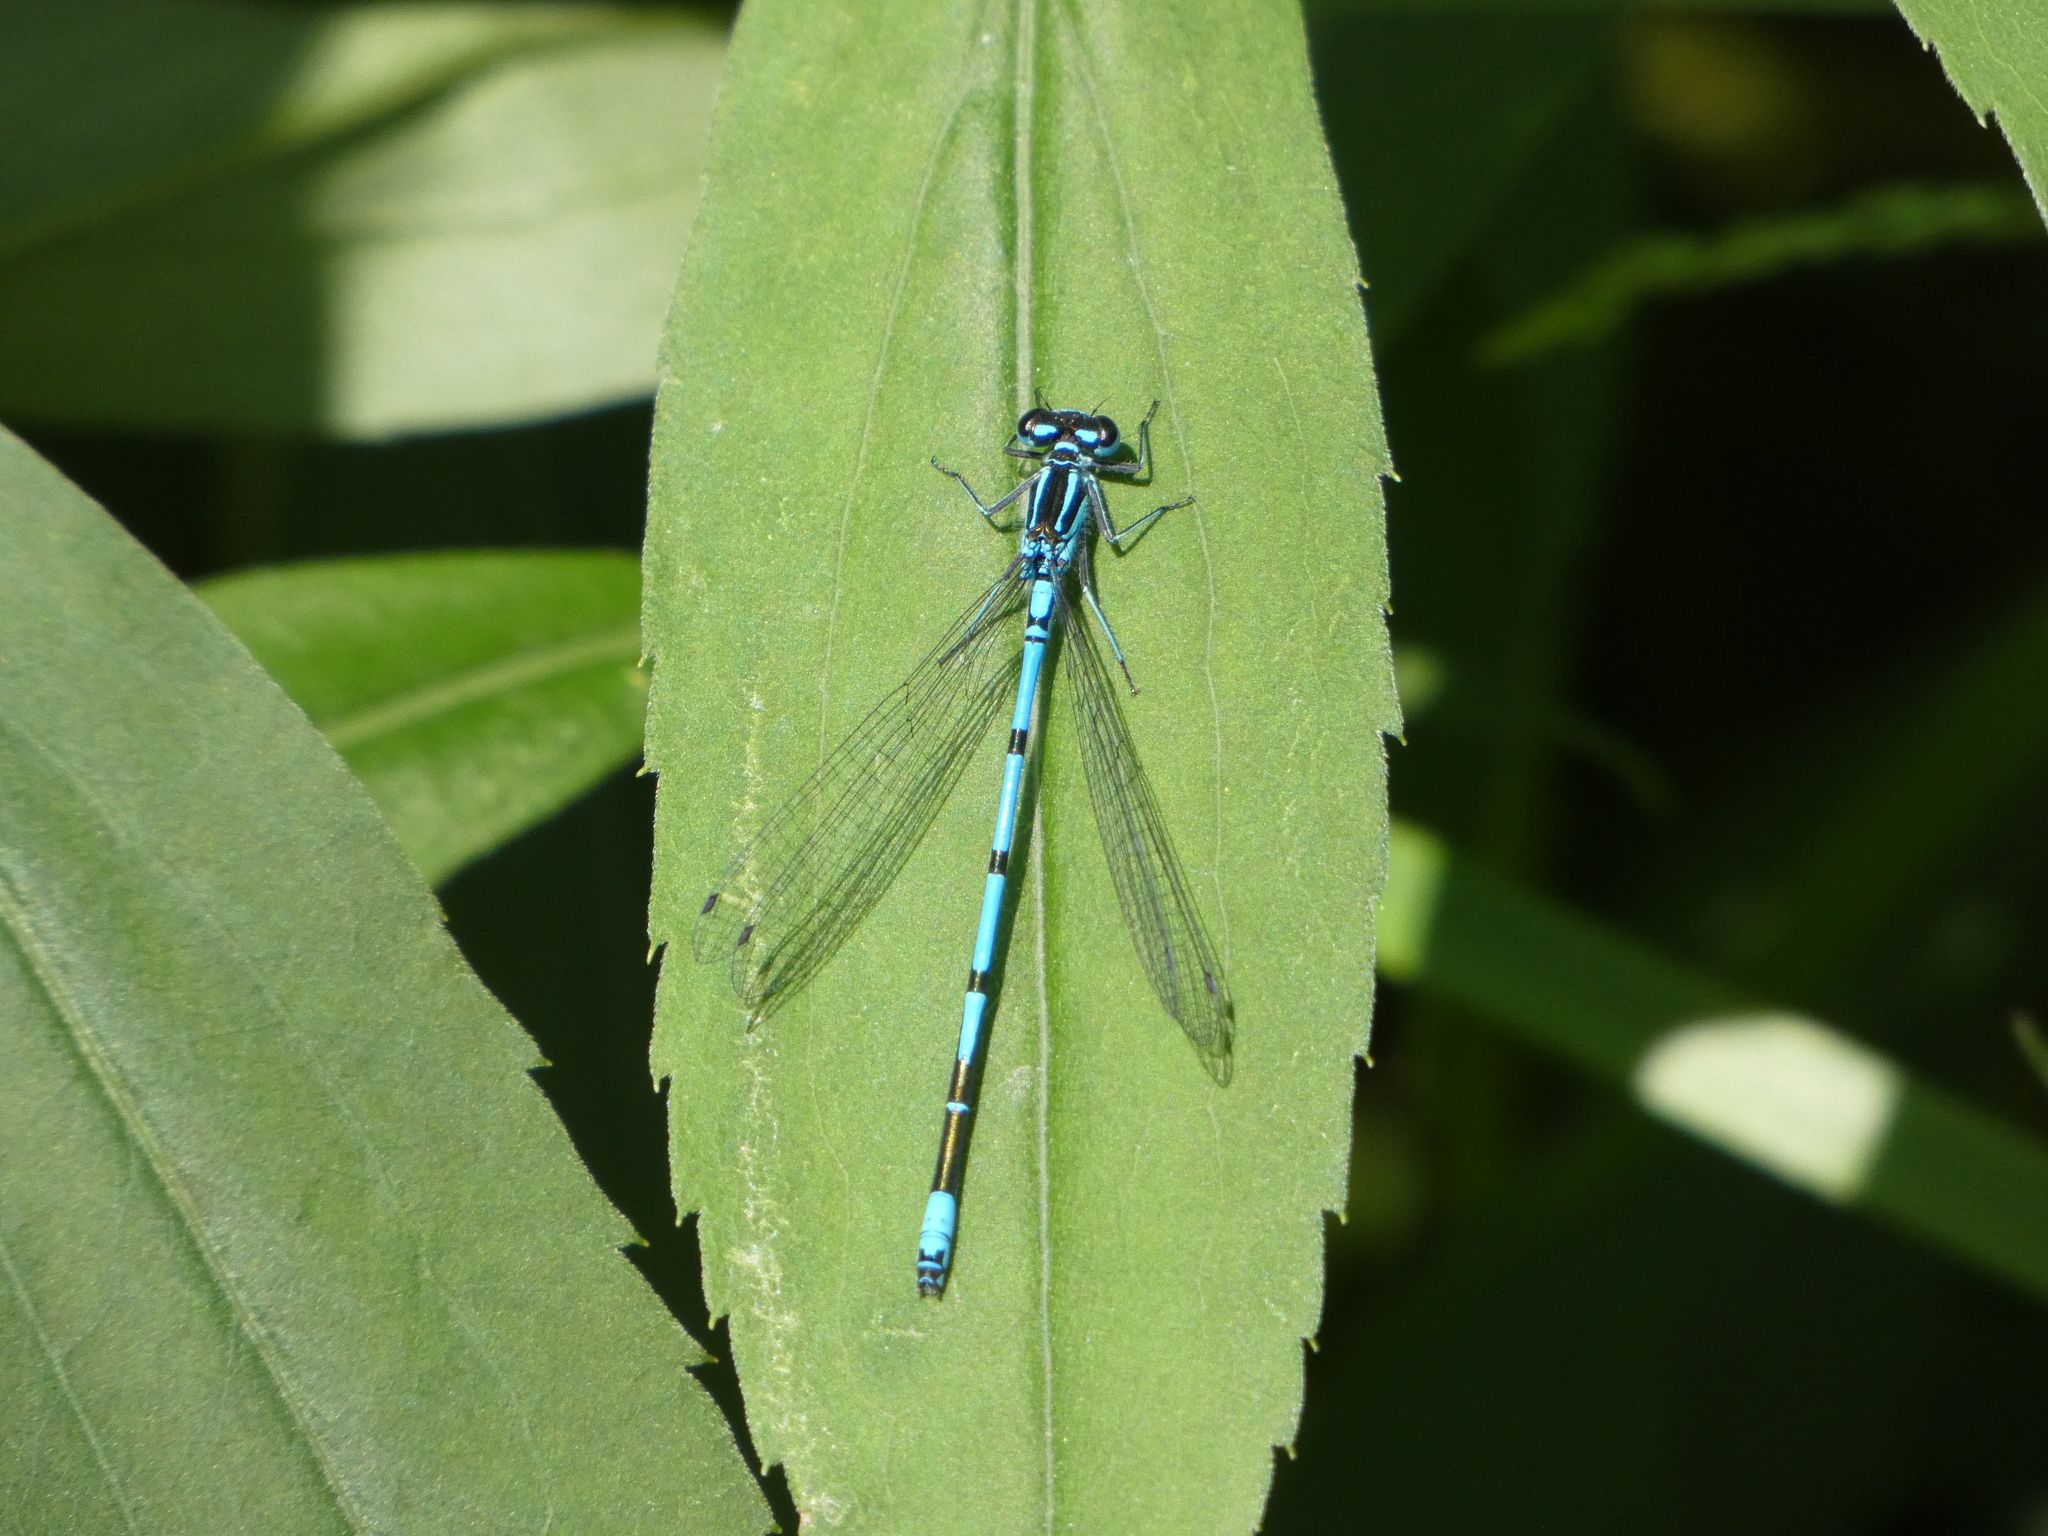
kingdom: Animalia
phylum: Arthropoda
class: Insecta
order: Odonata
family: Coenagrionidae
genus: Coenagrion
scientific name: Coenagrion puella
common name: Azure damselfly
